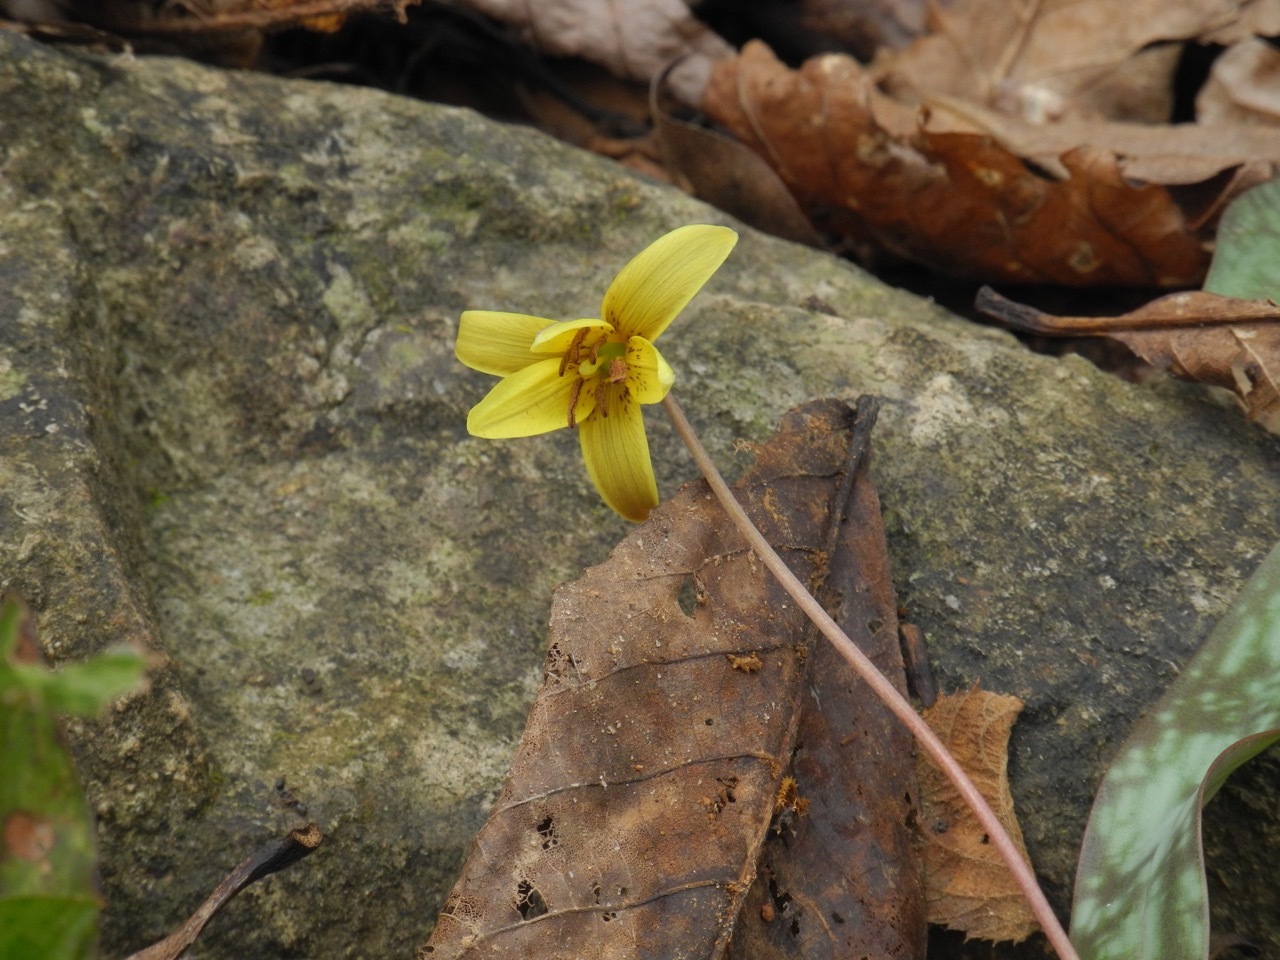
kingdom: Plantae
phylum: Tracheophyta
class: Liliopsida
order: Liliales
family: Liliaceae
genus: Erythronium
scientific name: Erythronium umbilicatum
